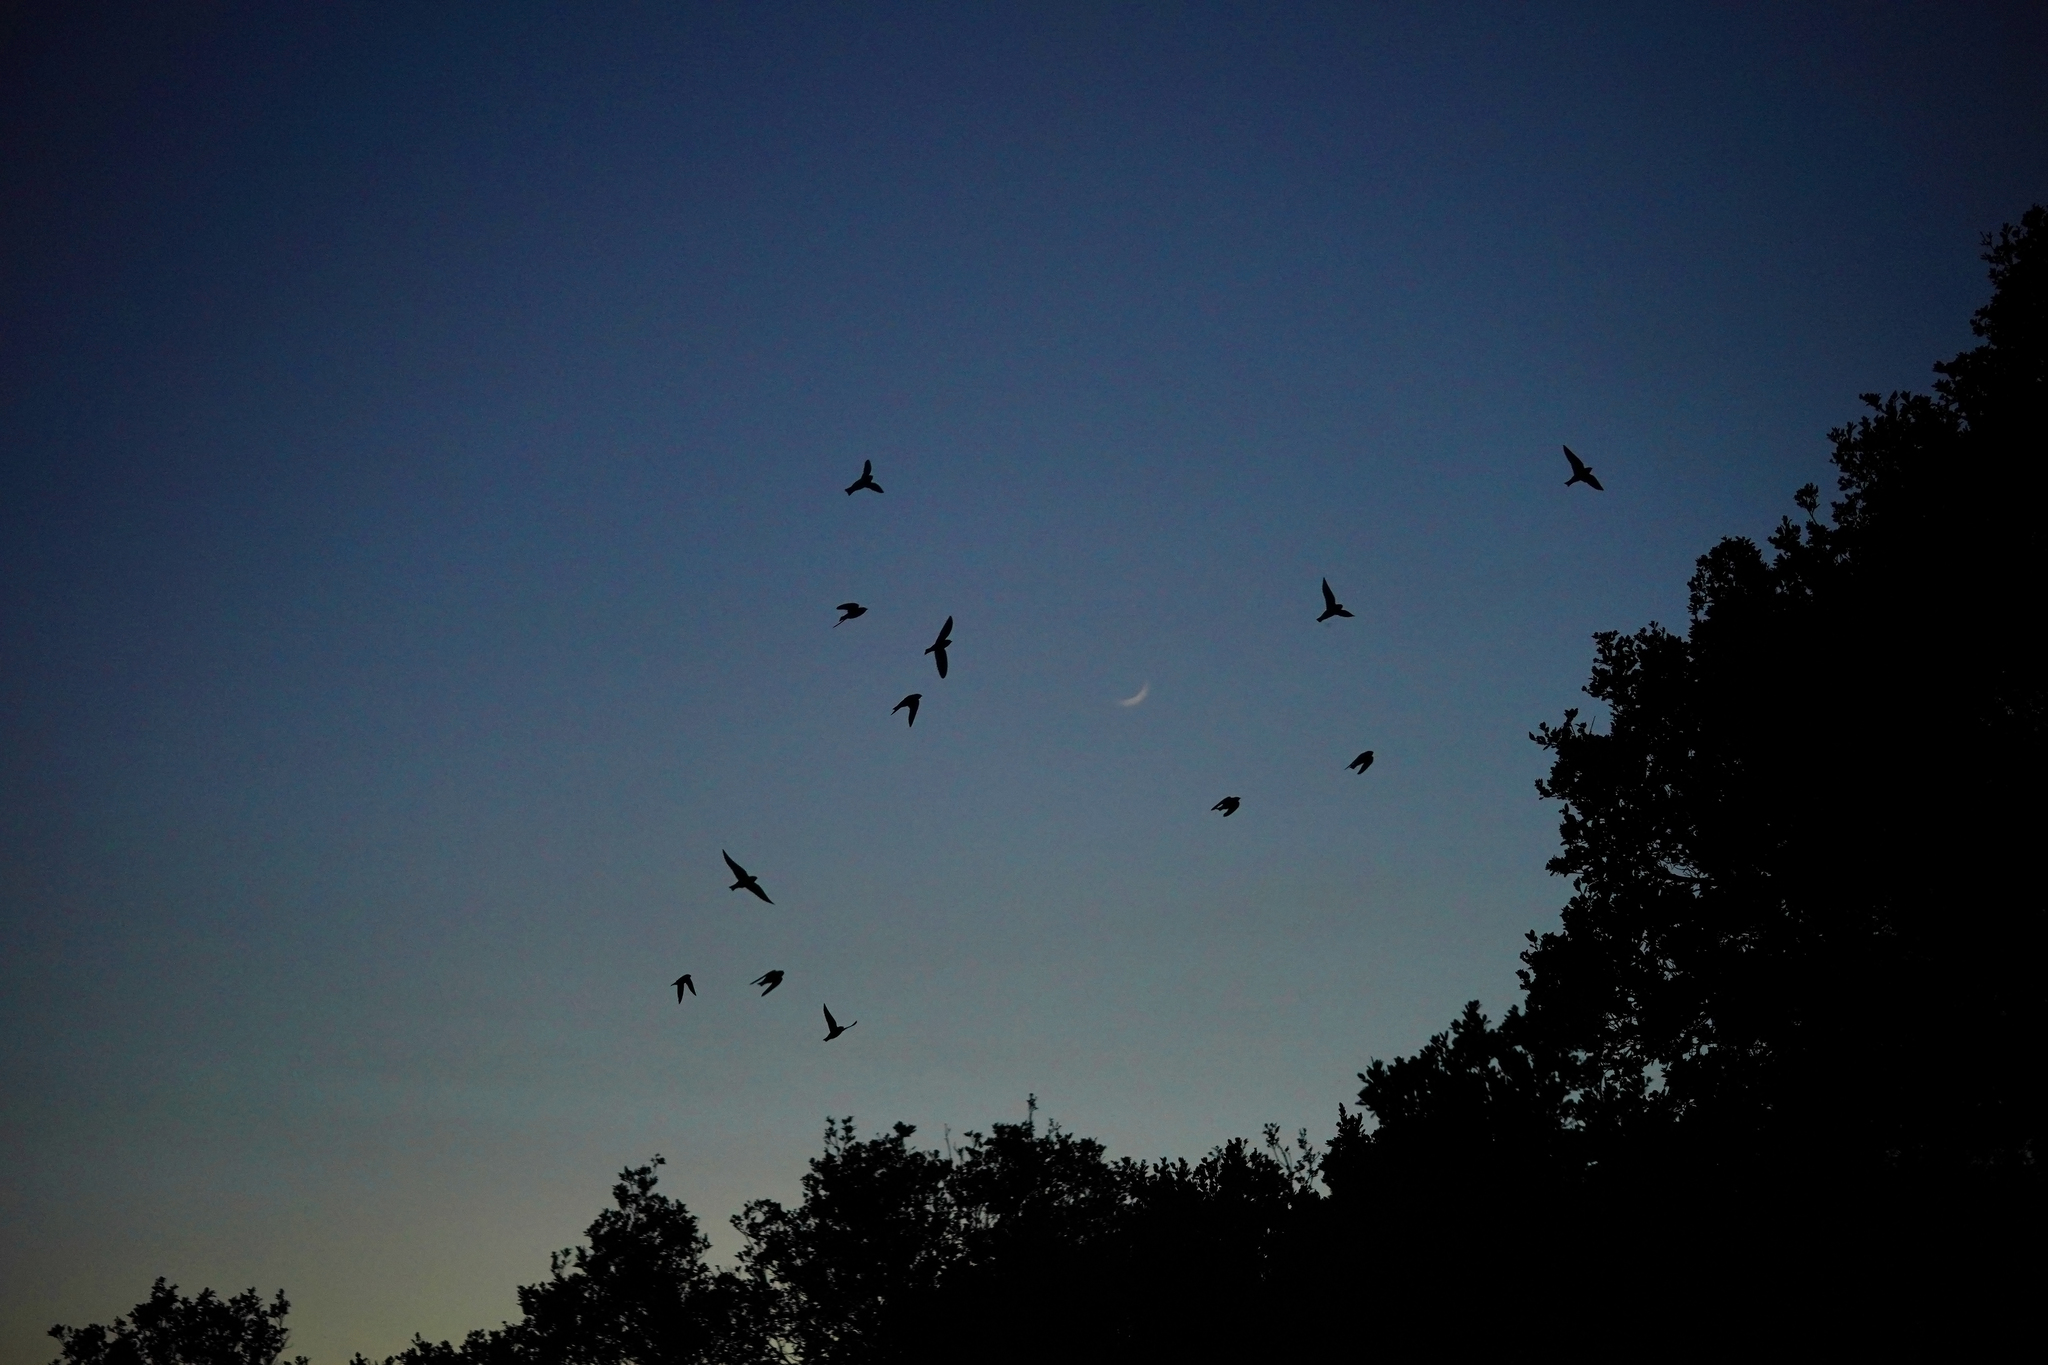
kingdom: Animalia
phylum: Chordata
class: Aves
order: Apodiformes
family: Apodidae
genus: Chaetura
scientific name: Chaetura vauxi
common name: Vaux's swift
